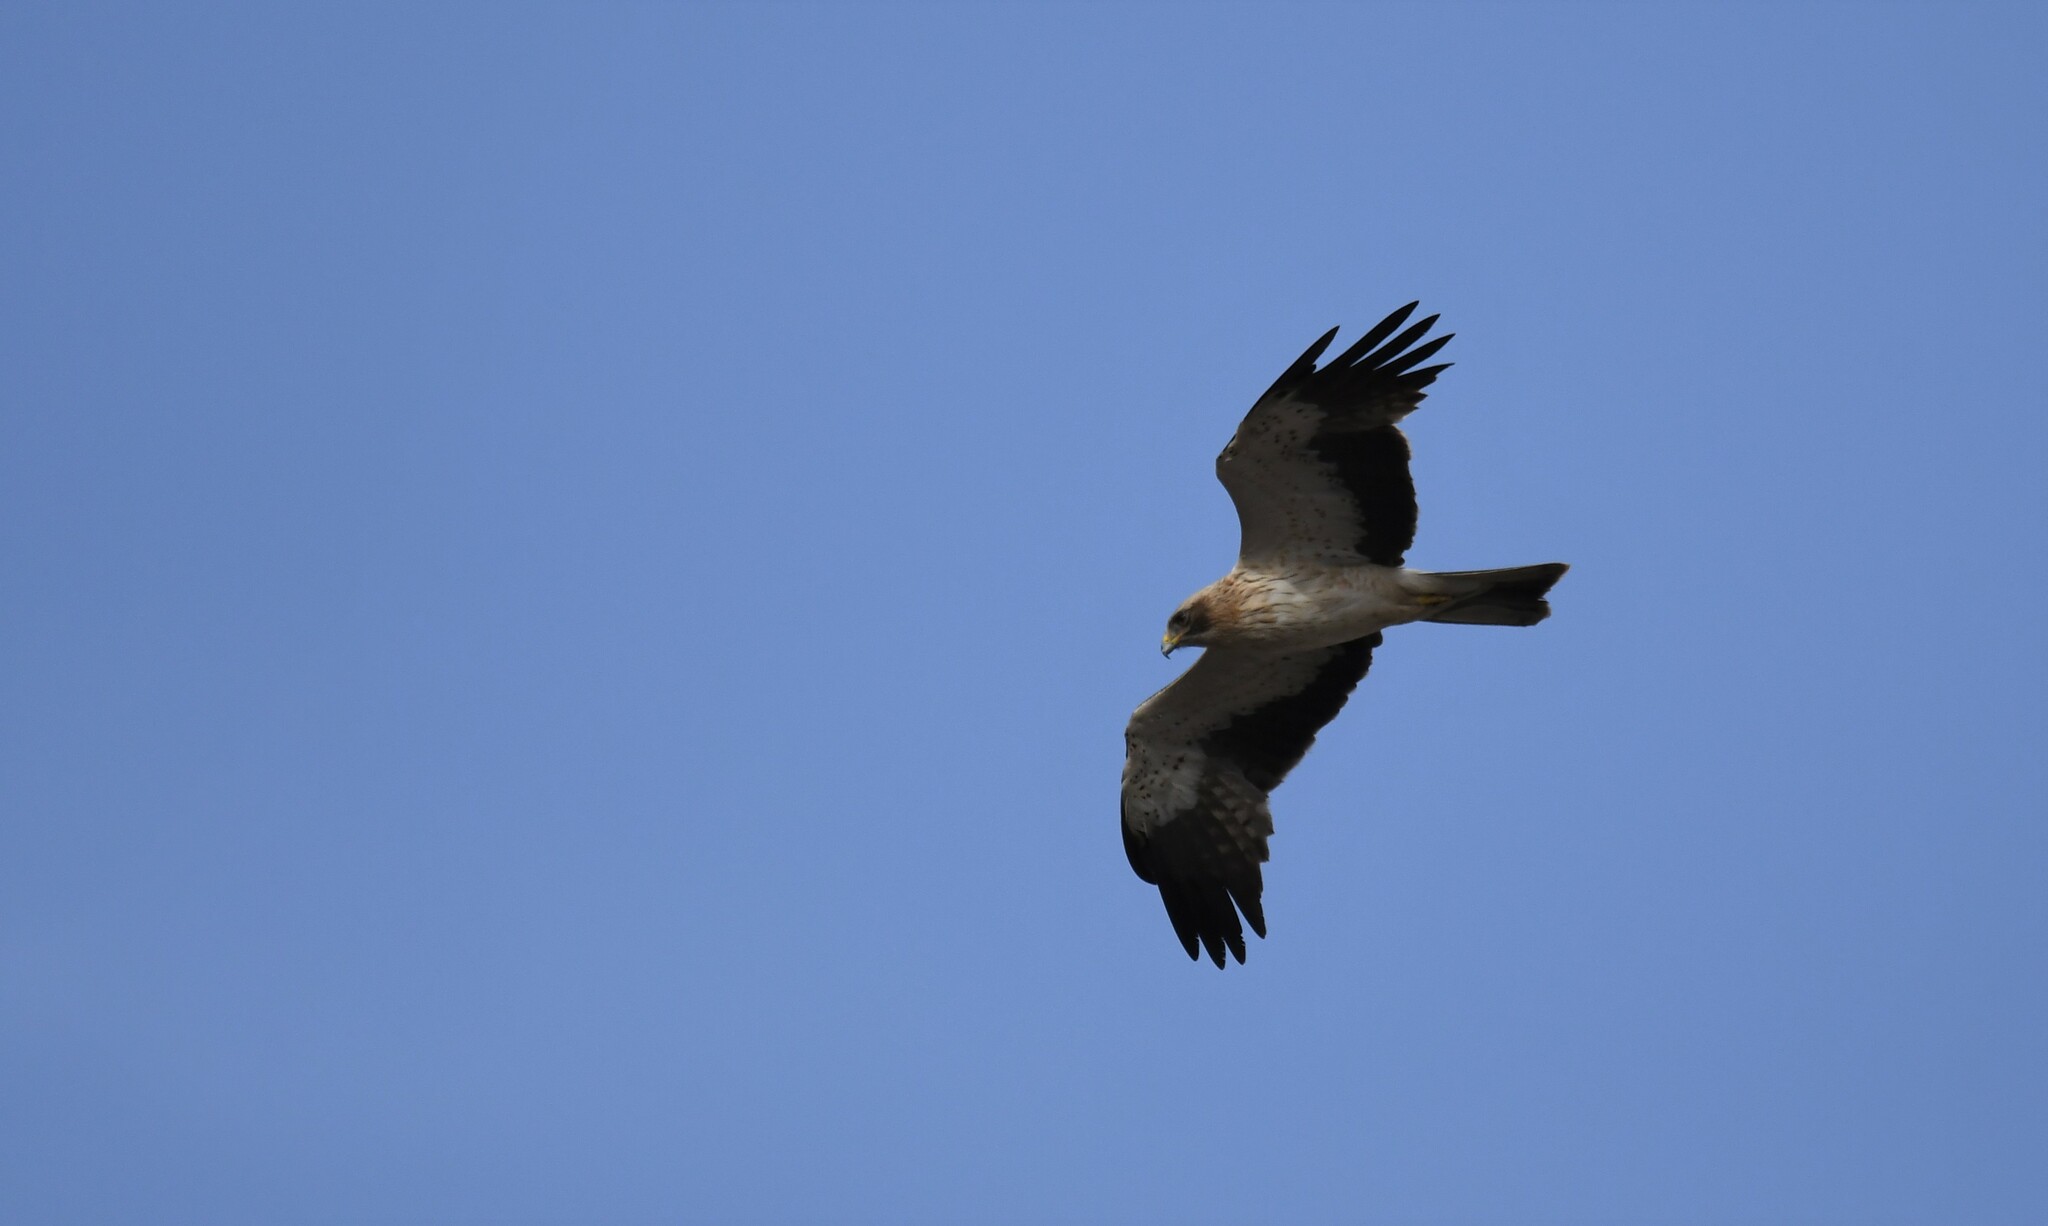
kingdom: Animalia
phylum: Chordata
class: Aves
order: Accipitriformes
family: Accipitridae
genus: Hieraaetus
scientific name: Hieraaetus pennatus
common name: Booted eagle
